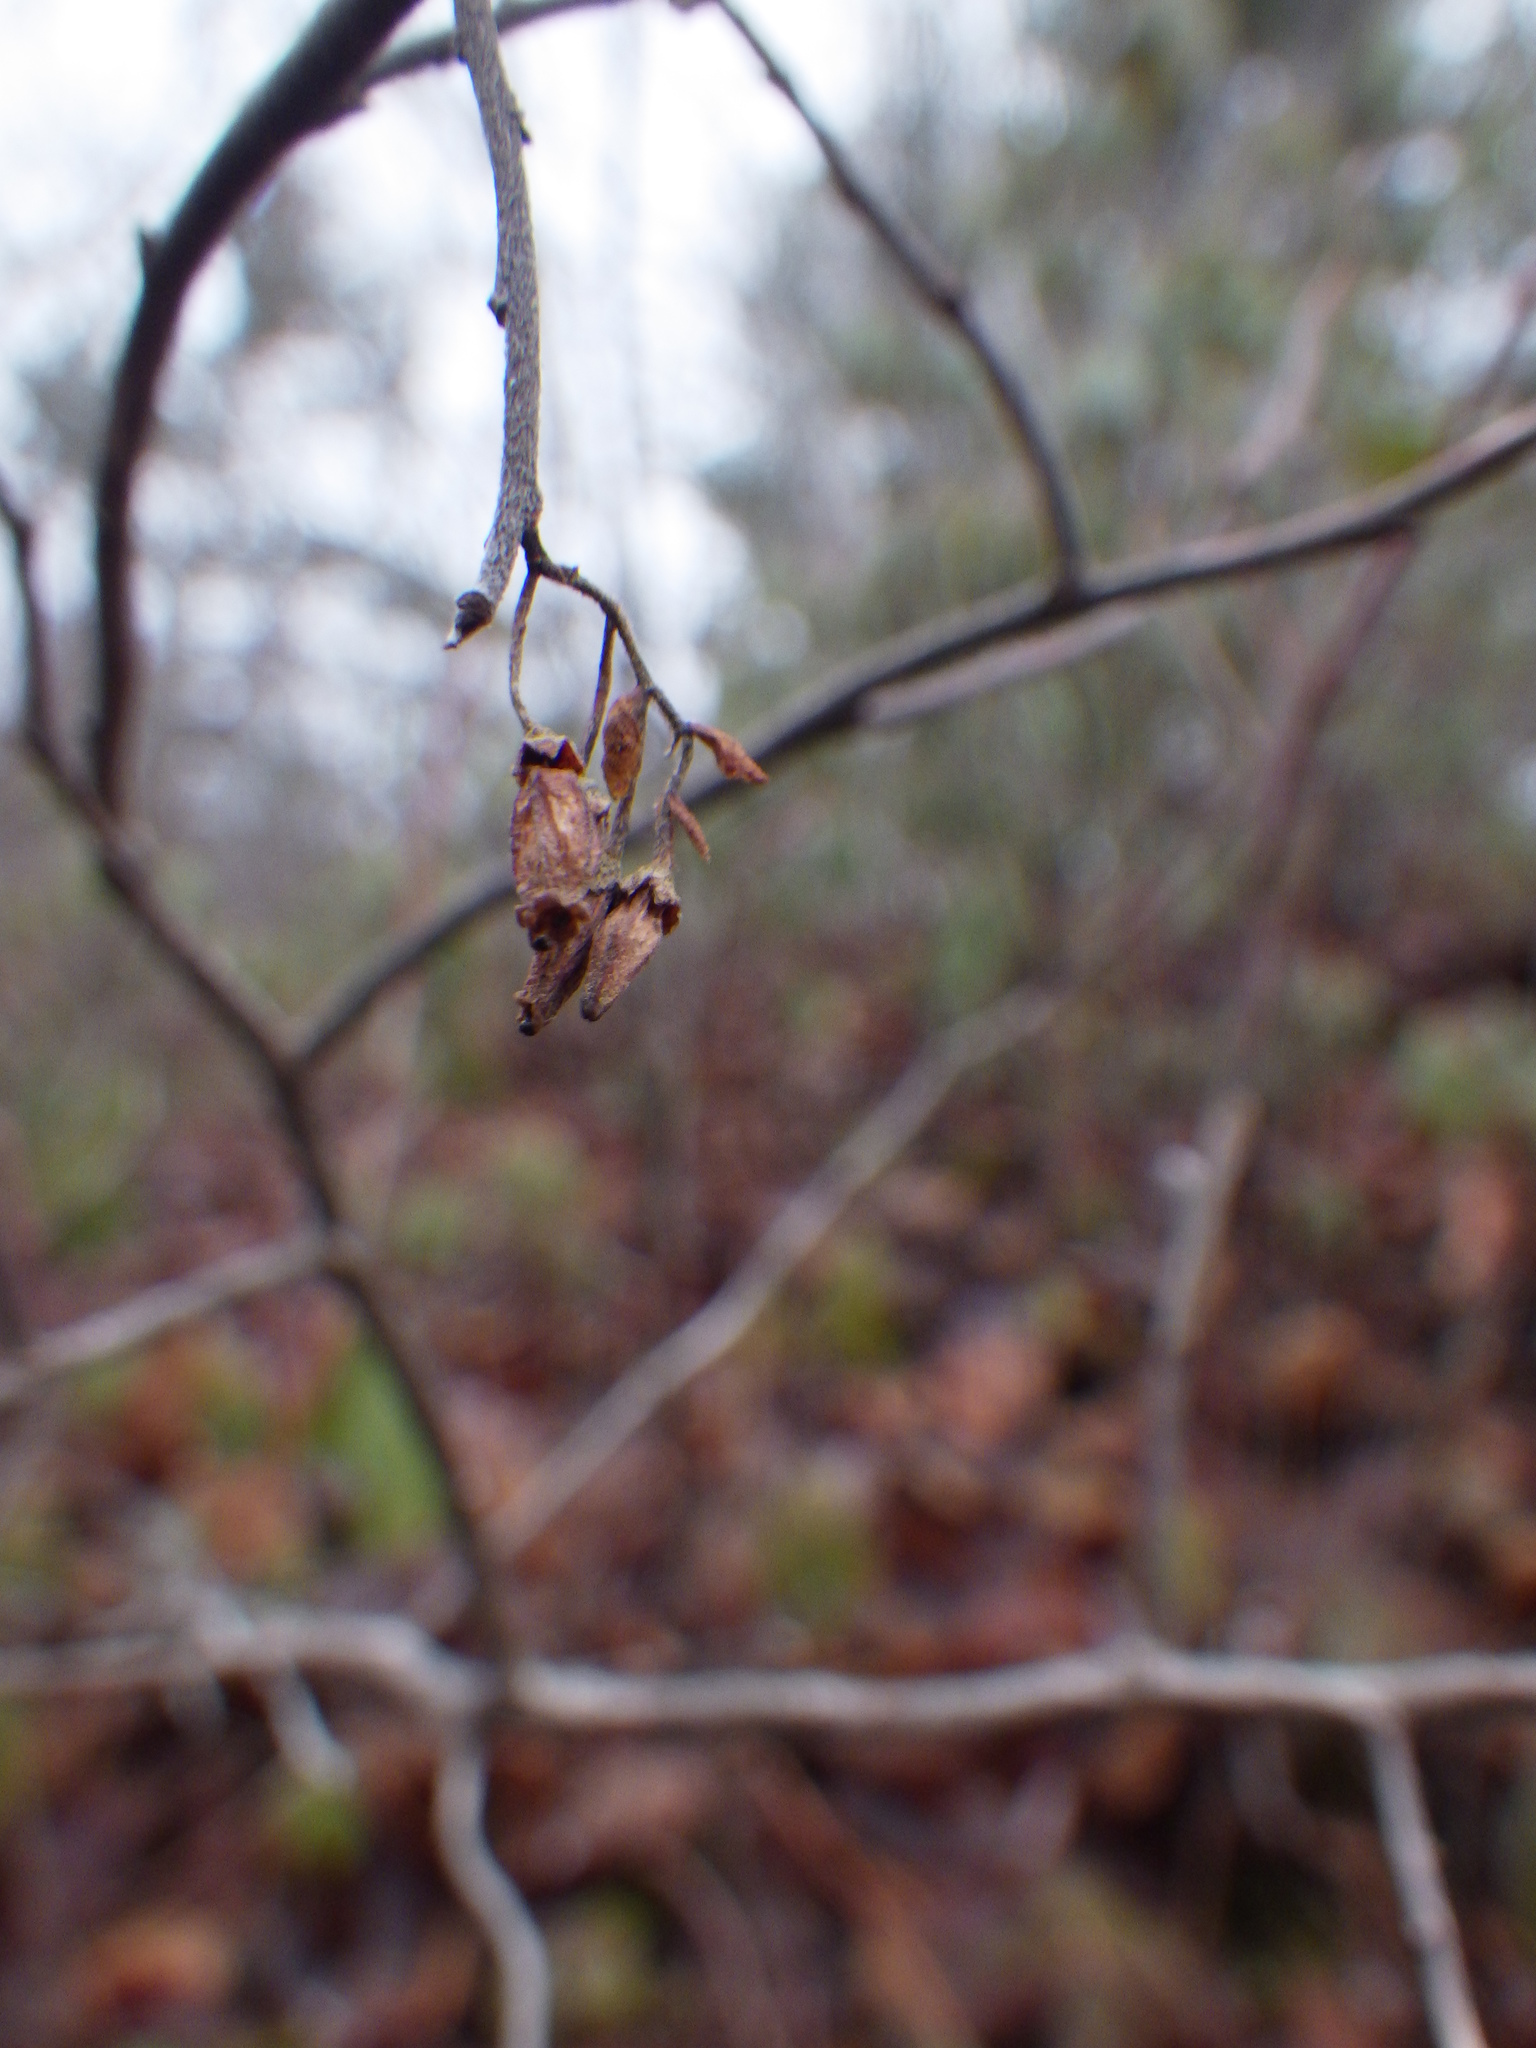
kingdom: Plantae
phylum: Tracheophyta
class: Magnoliopsida
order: Ericales
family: Ericaceae
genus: Gaylussacia
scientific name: Gaylussacia baccata
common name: Black huckleberry
